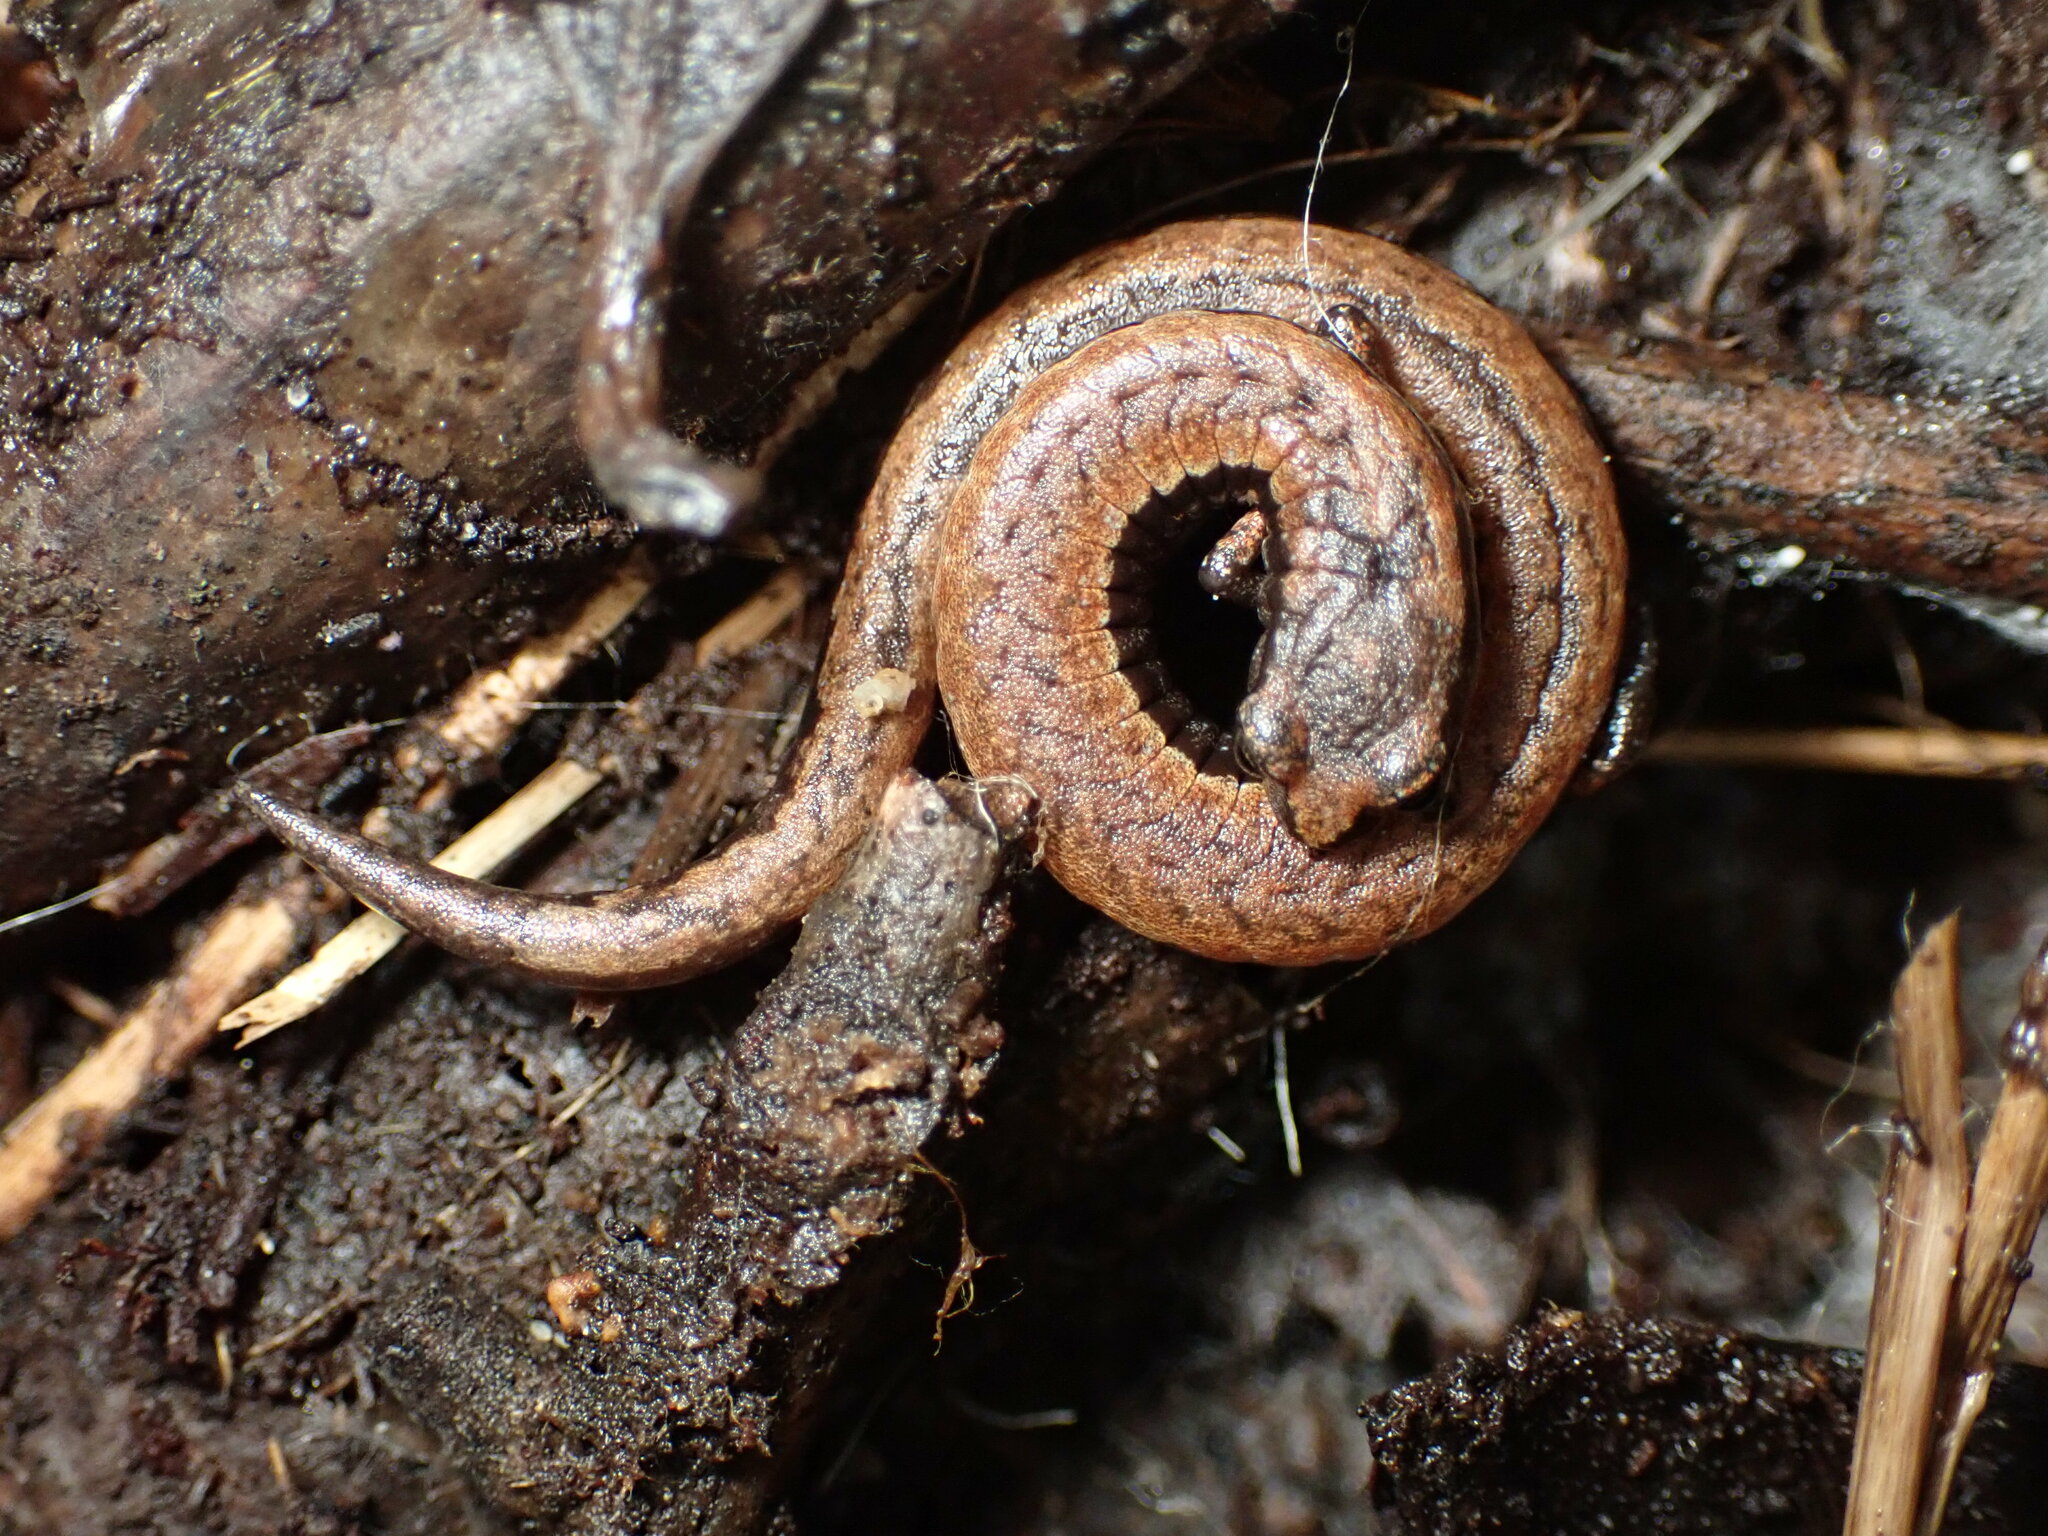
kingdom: Animalia
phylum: Chordata
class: Amphibia
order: Caudata
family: Plethodontidae
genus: Batrachoseps
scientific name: Batrachoseps attenuatus
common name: California slender salamander
